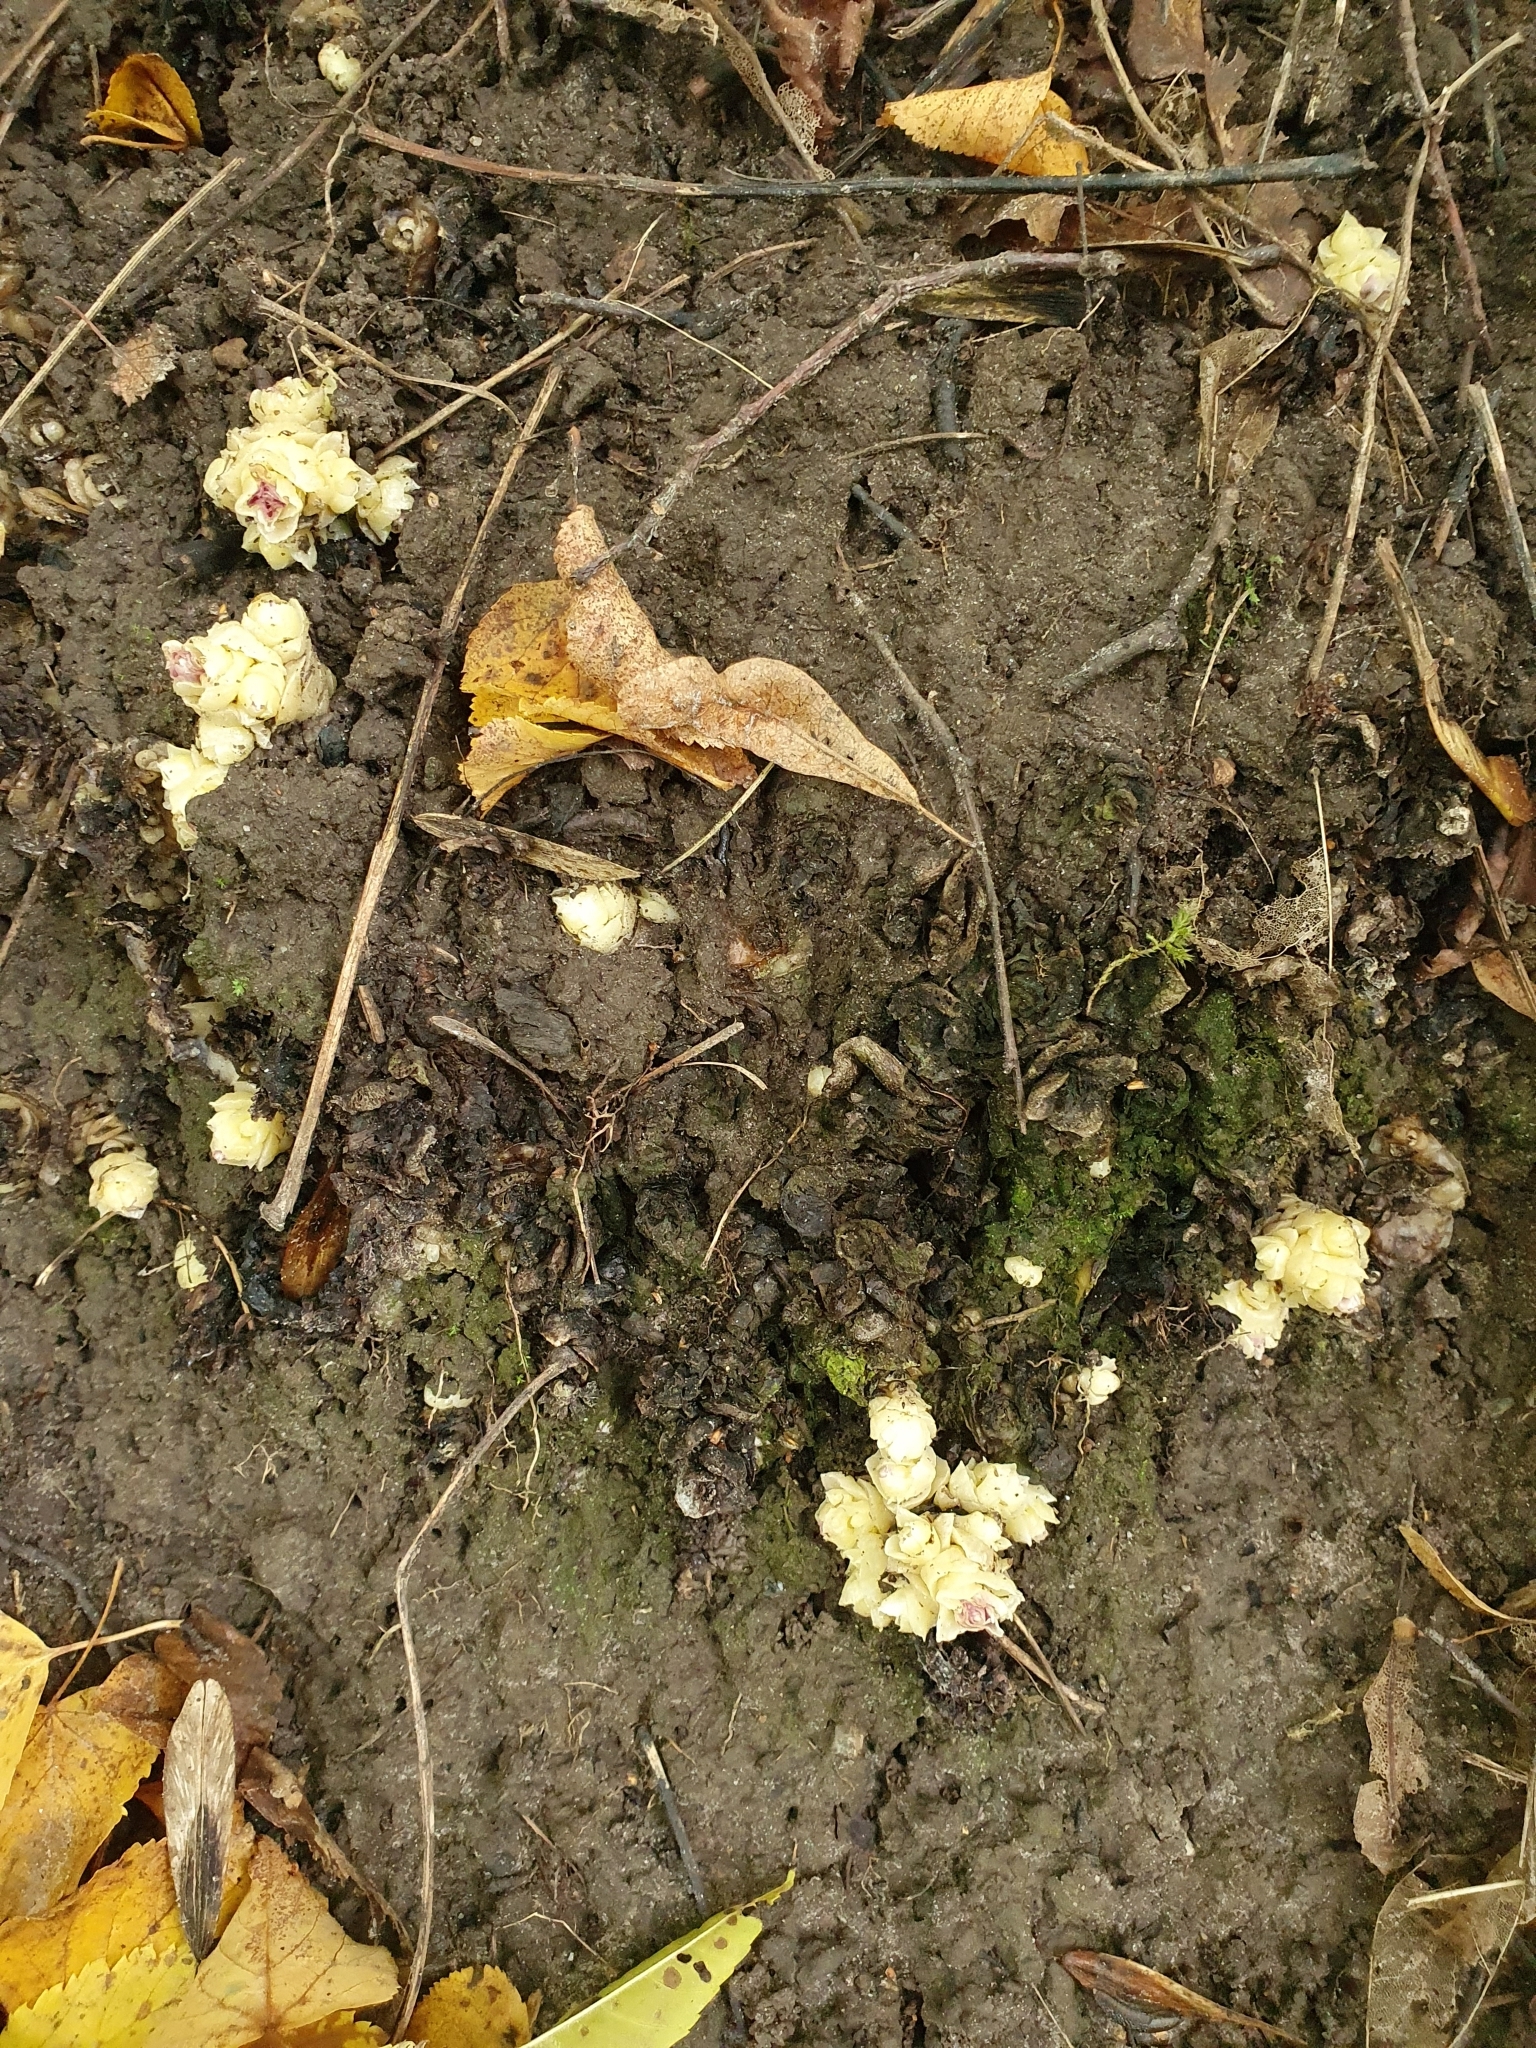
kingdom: Plantae
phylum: Tracheophyta
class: Magnoliopsida
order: Lamiales
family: Orobanchaceae
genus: Lathraea
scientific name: Lathraea squamaria
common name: Toothwort
